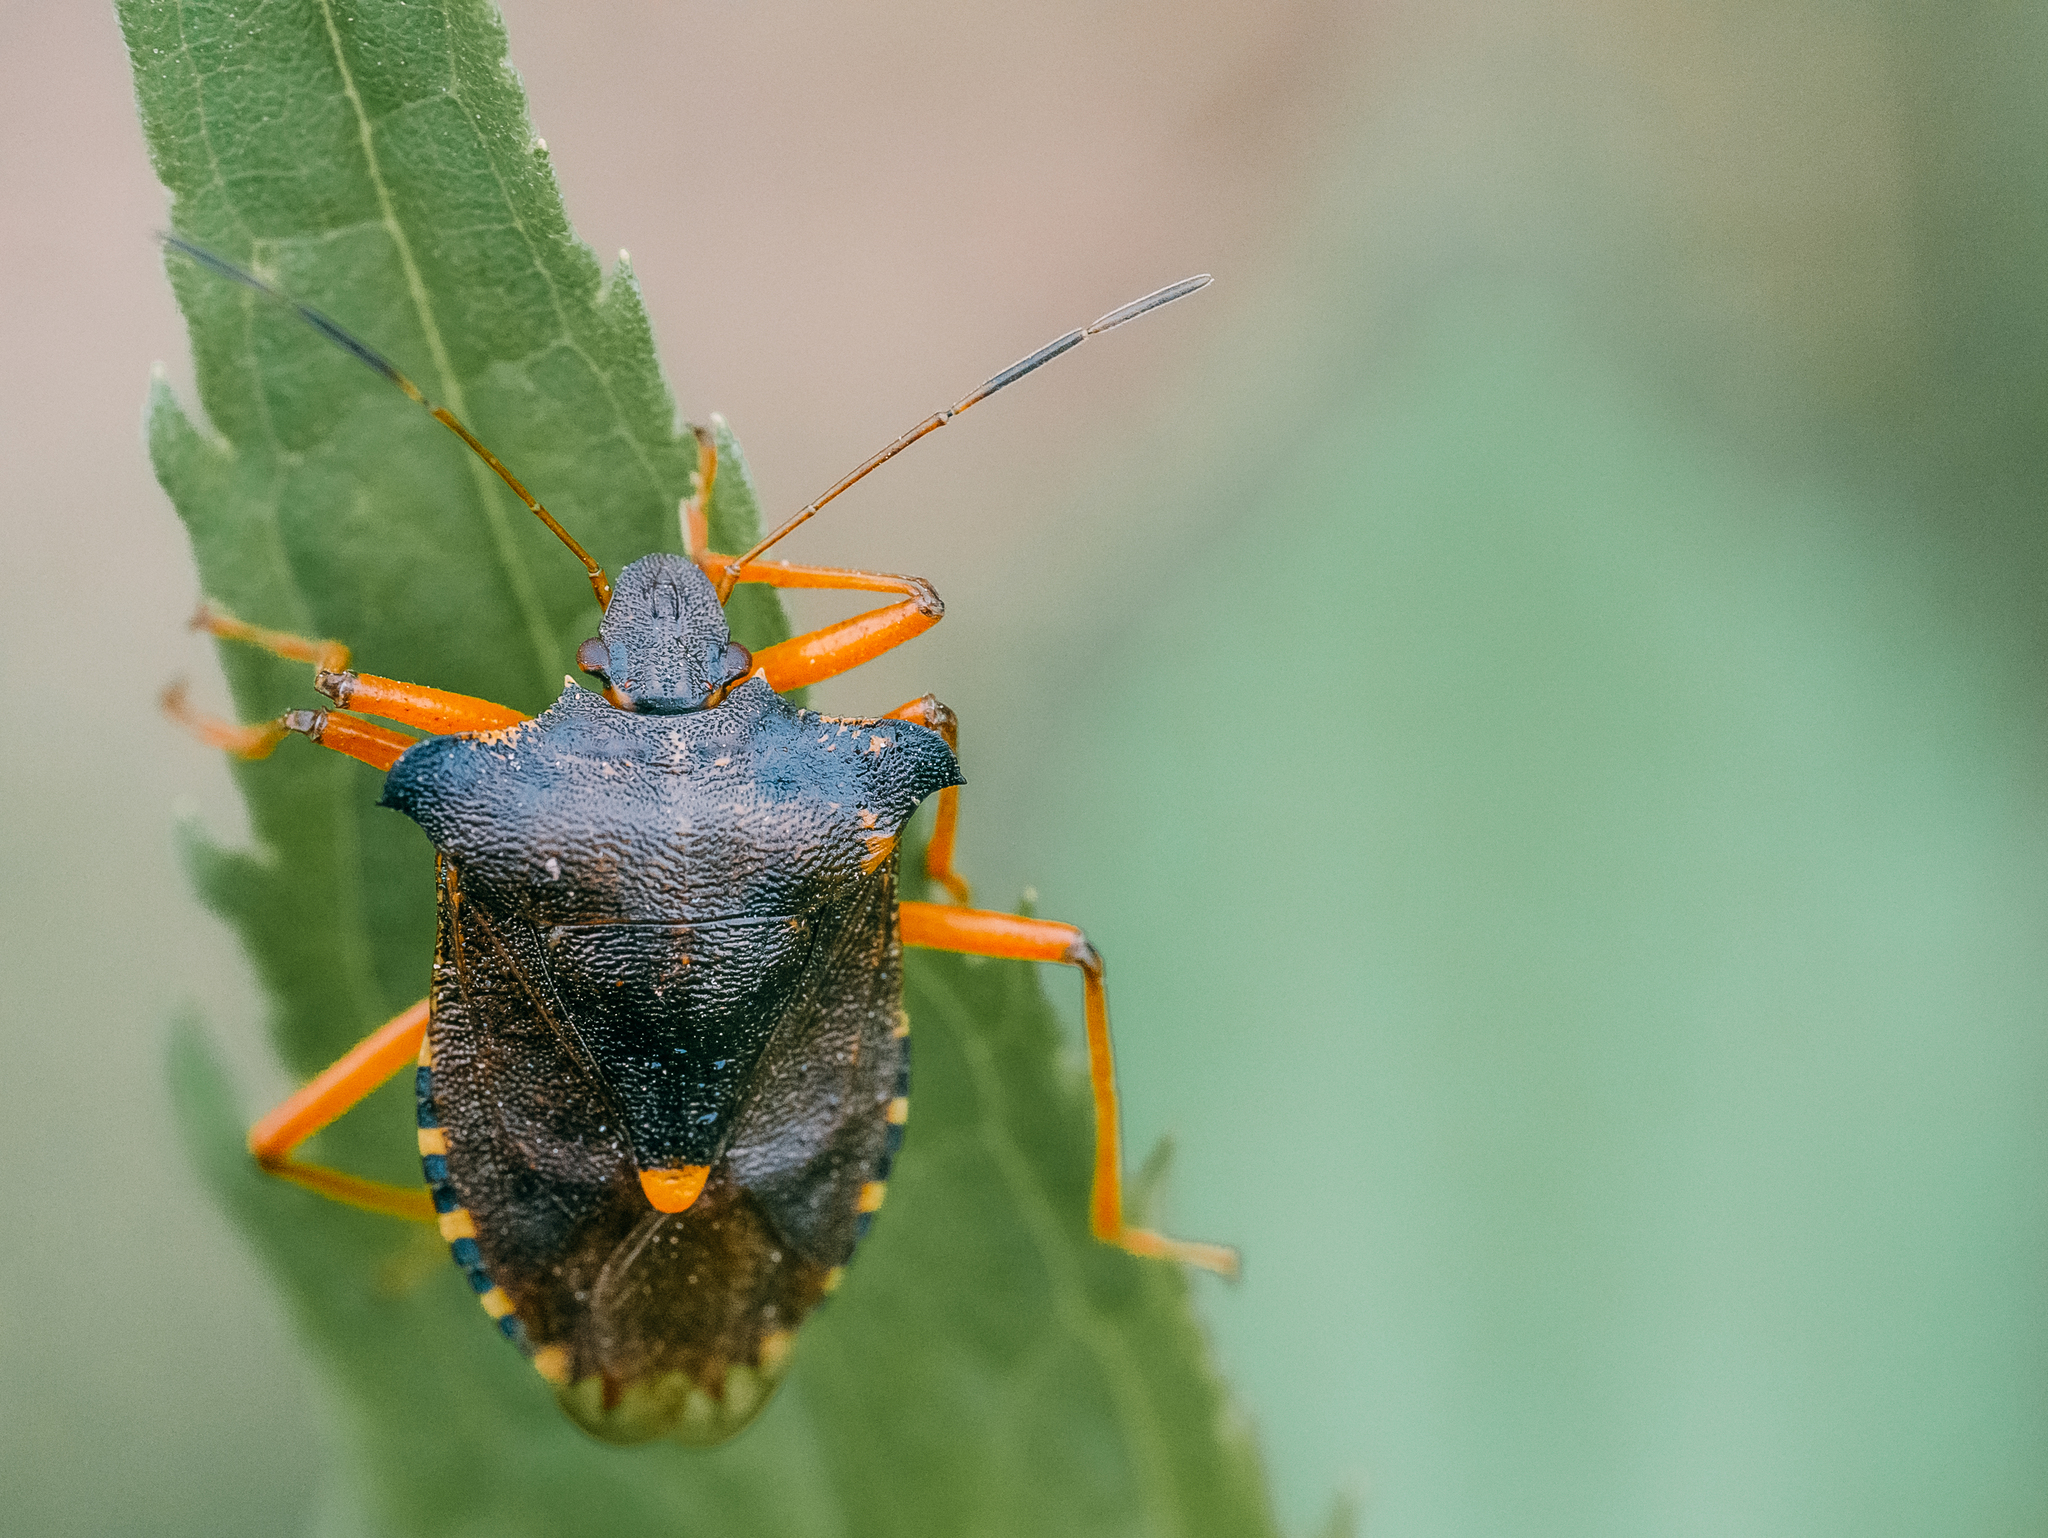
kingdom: Animalia
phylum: Arthropoda
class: Insecta
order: Hemiptera
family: Pentatomidae
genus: Pentatoma
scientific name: Pentatoma rufipes
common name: Forest bug
